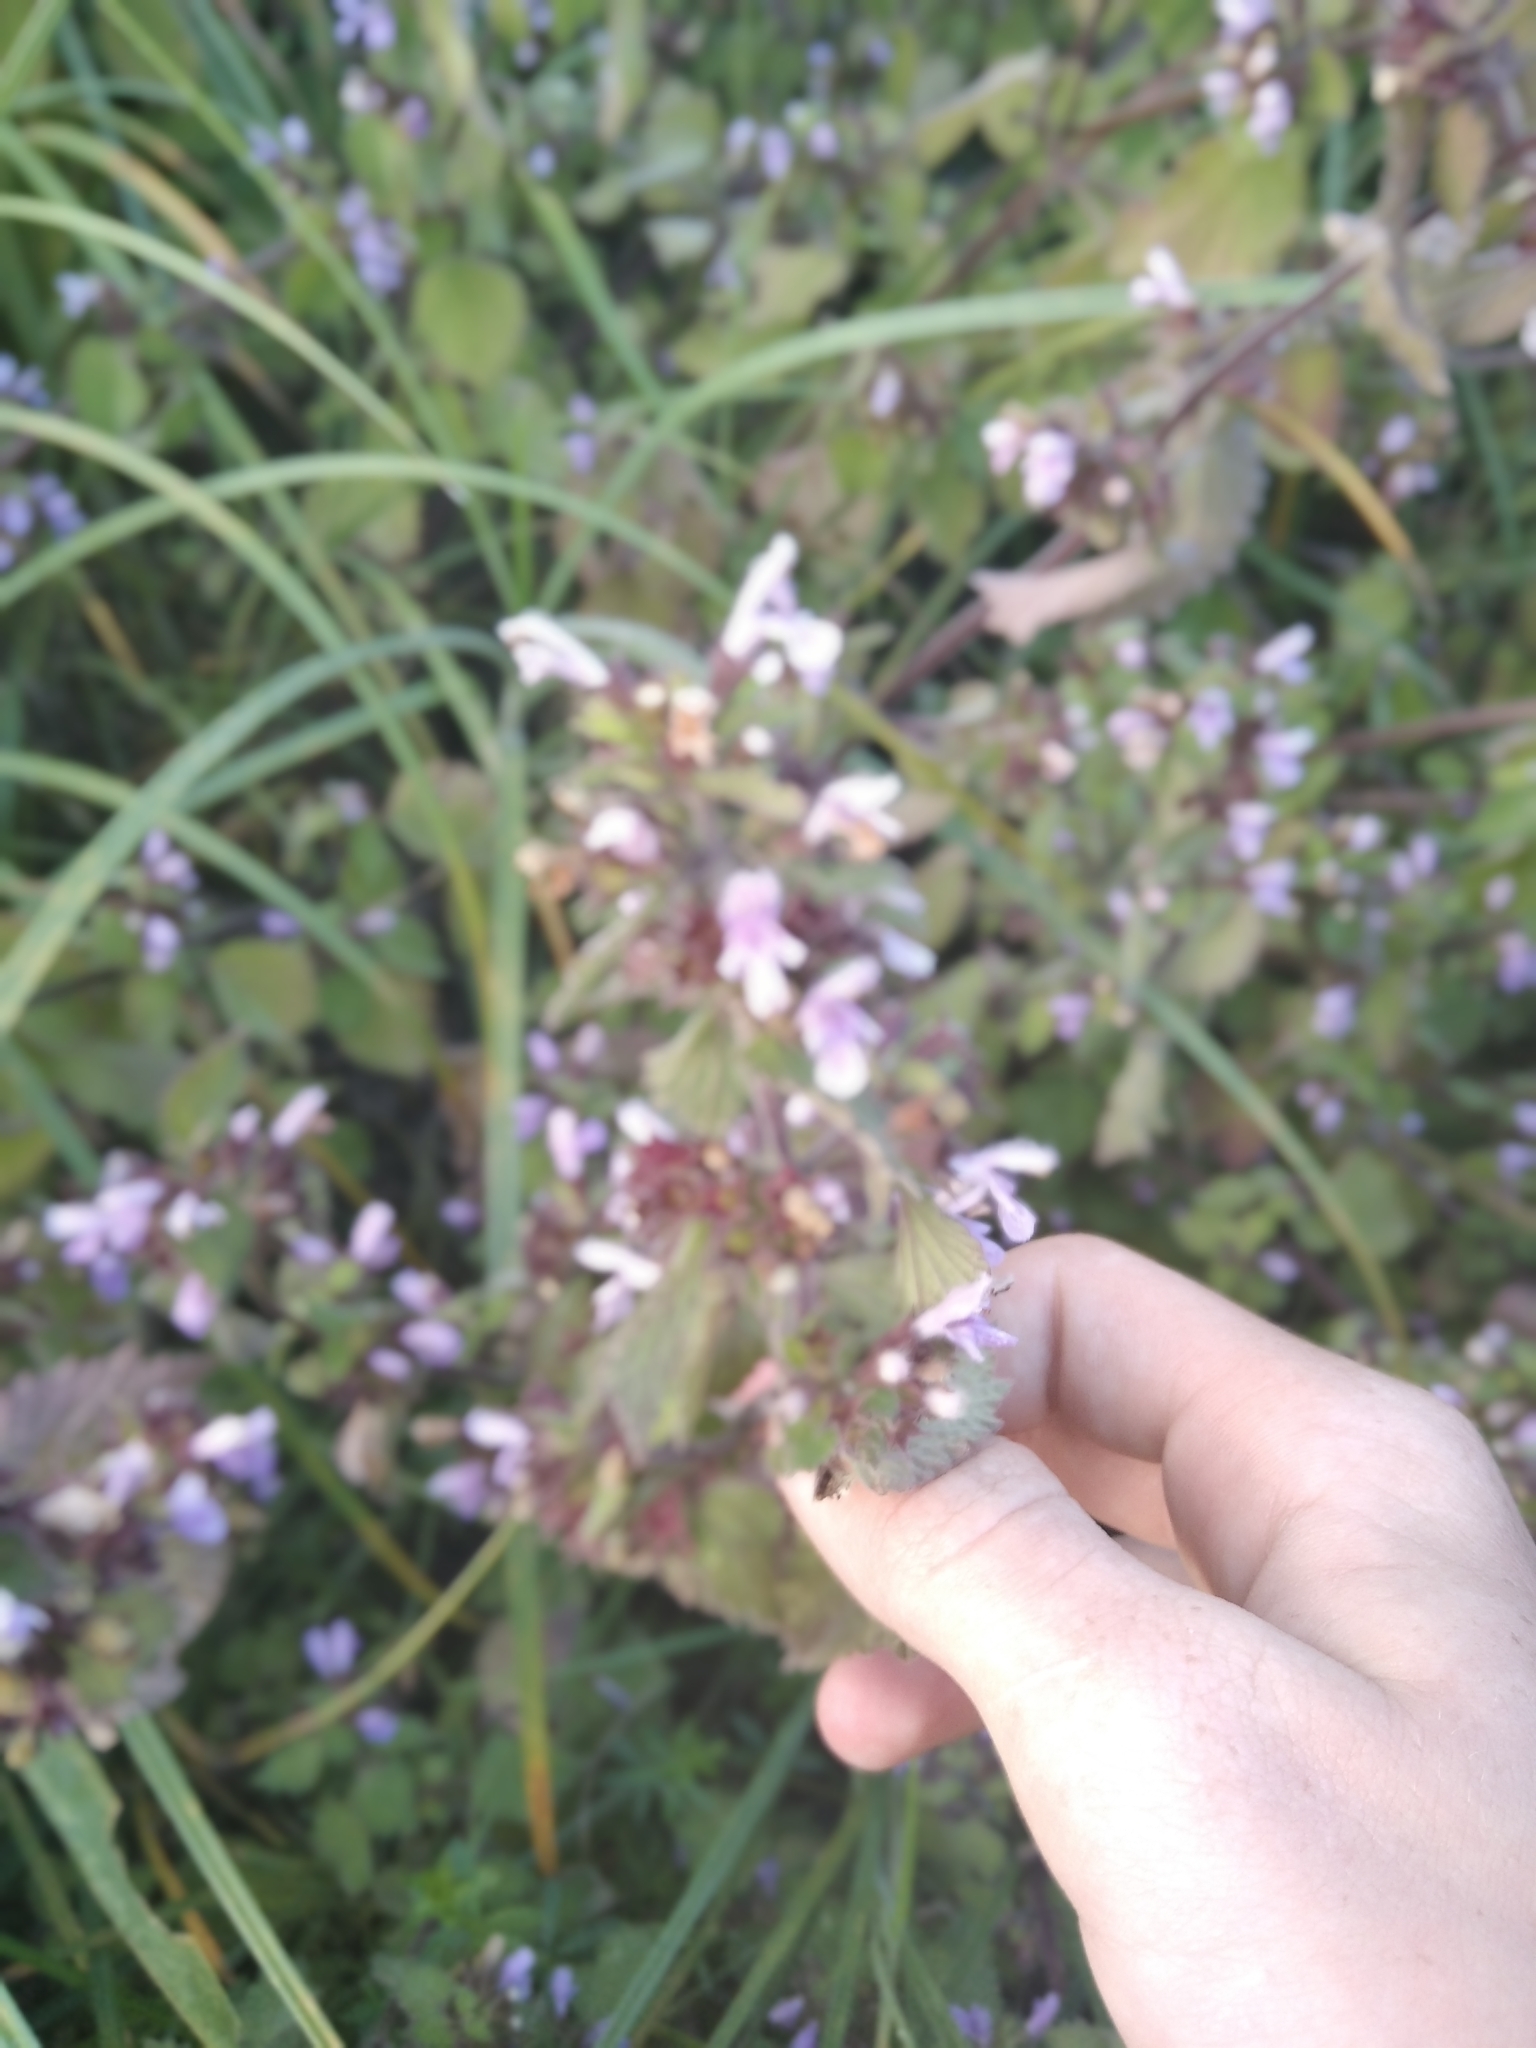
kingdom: Plantae
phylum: Tracheophyta
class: Magnoliopsida
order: Lamiales
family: Lamiaceae
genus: Ballota
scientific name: Ballota nigra
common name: Black horehound
